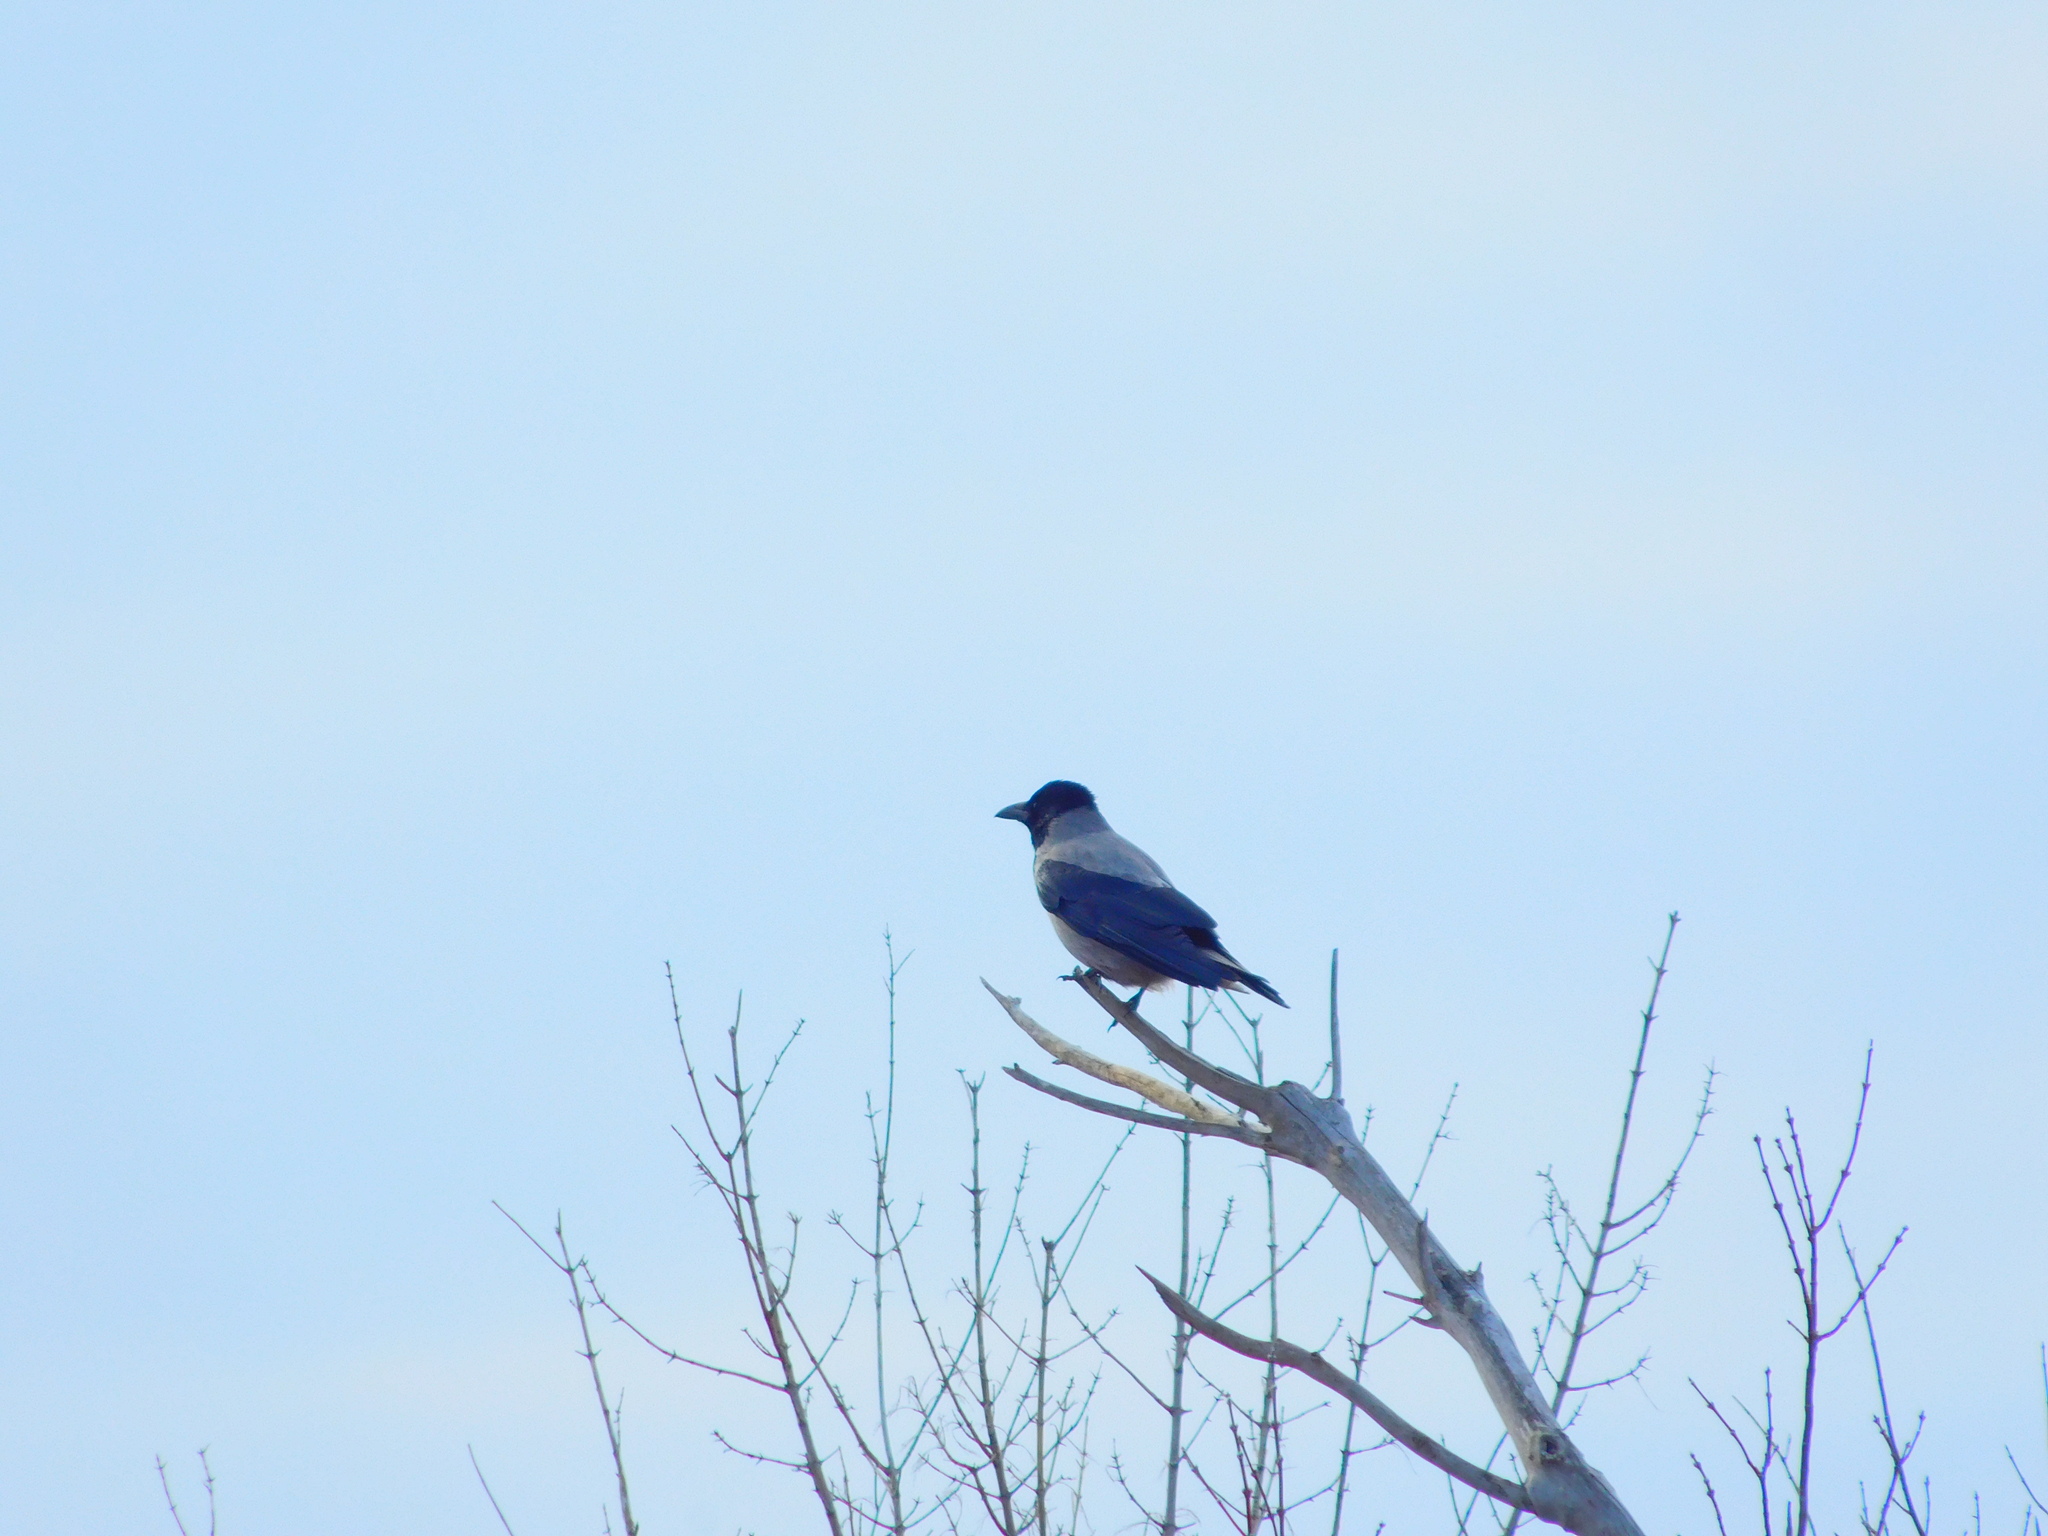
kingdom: Animalia
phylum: Chordata
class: Aves
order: Passeriformes
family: Corvidae
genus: Corvus
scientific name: Corvus cornix
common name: Hooded crow
